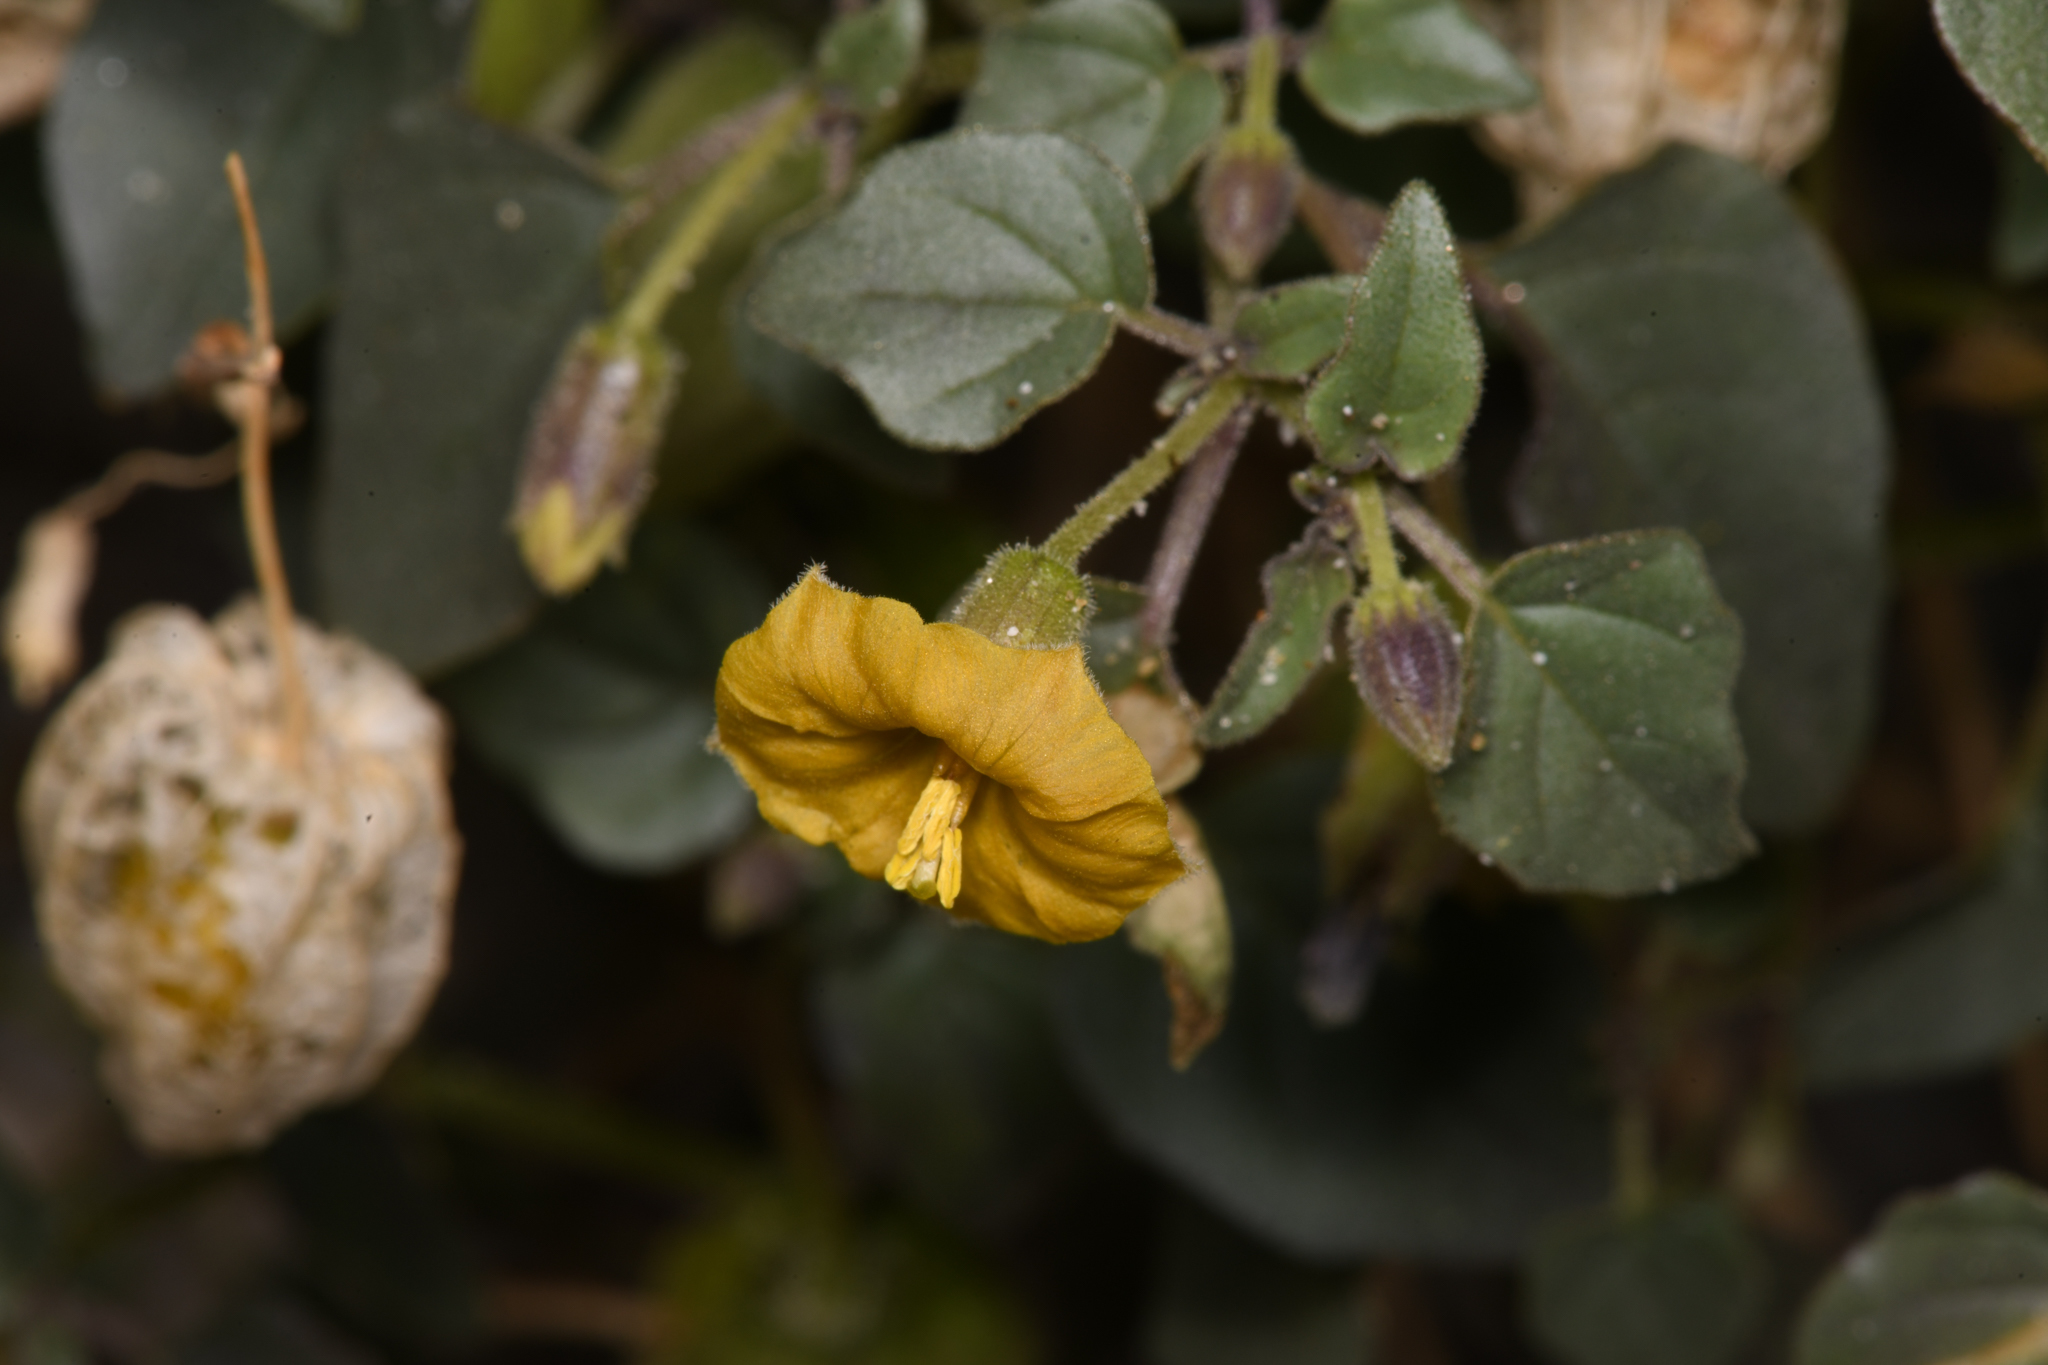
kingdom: Plantae
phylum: Tracheophyta
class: Magnoliopsida
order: Solanales
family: Solanaceae
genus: Physalis
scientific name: Physalis crassifolia
